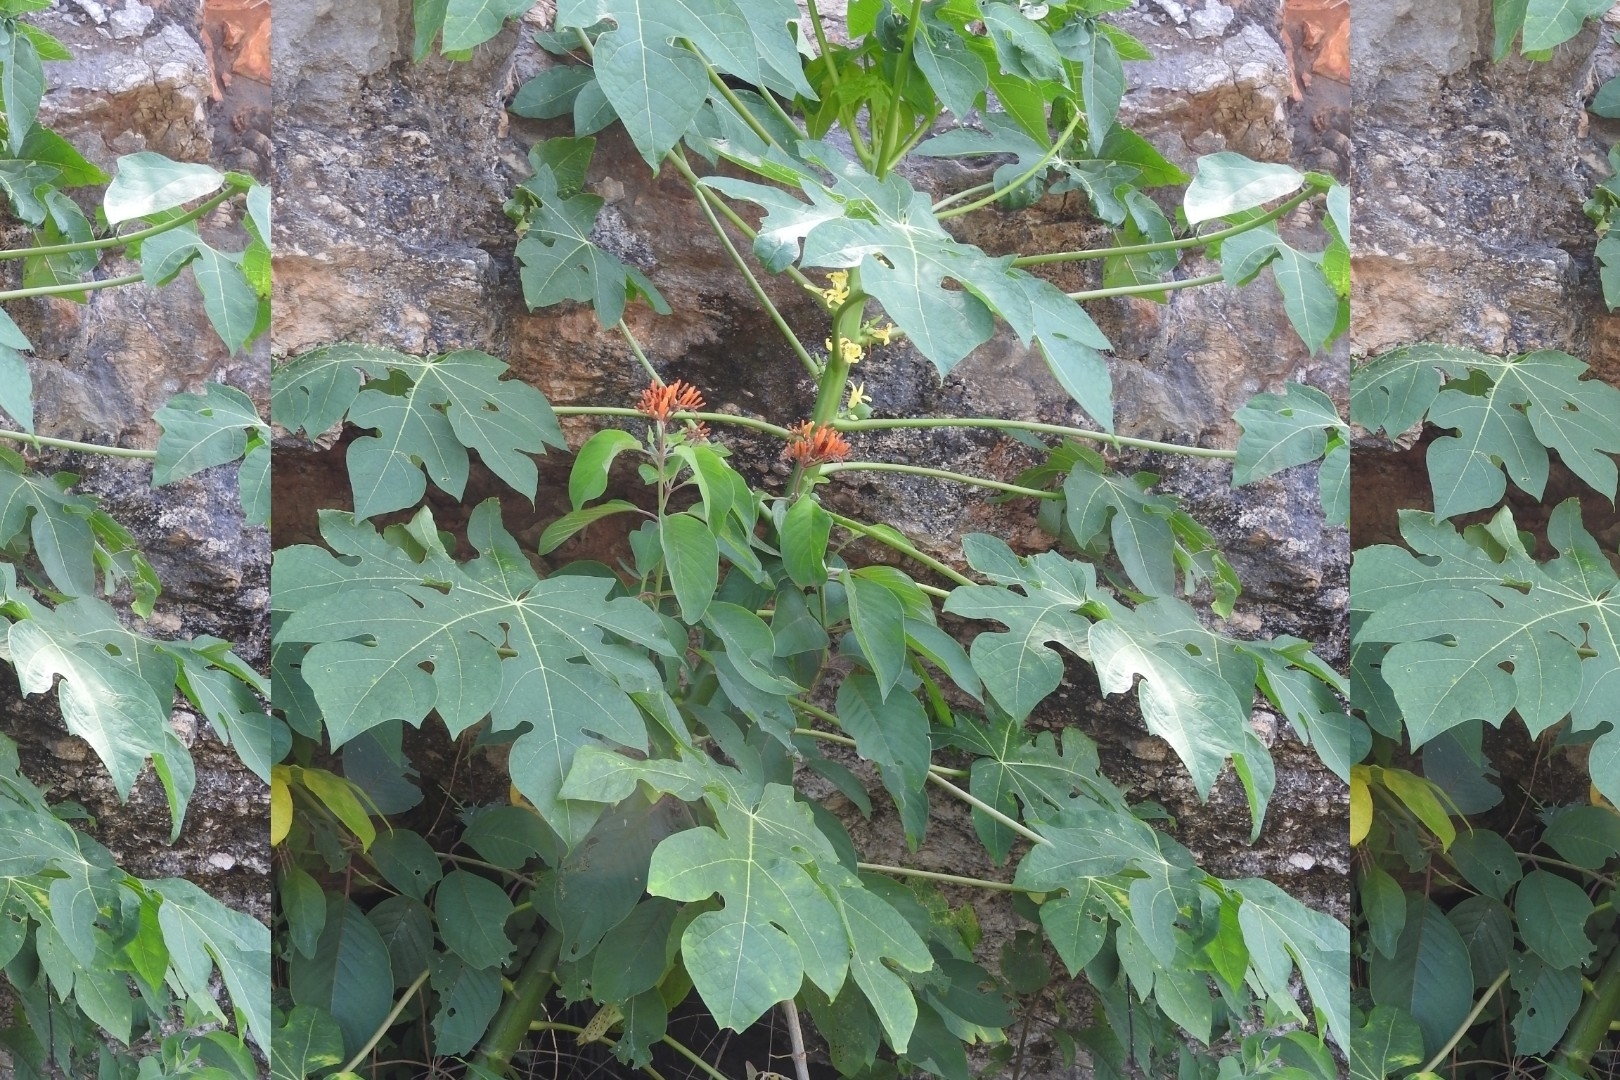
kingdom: Plantae
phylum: Tracheophyta
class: Magnoliopsida
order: Brassicales
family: Caricaceae
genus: Carica
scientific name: Carica papaya
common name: Papaya
